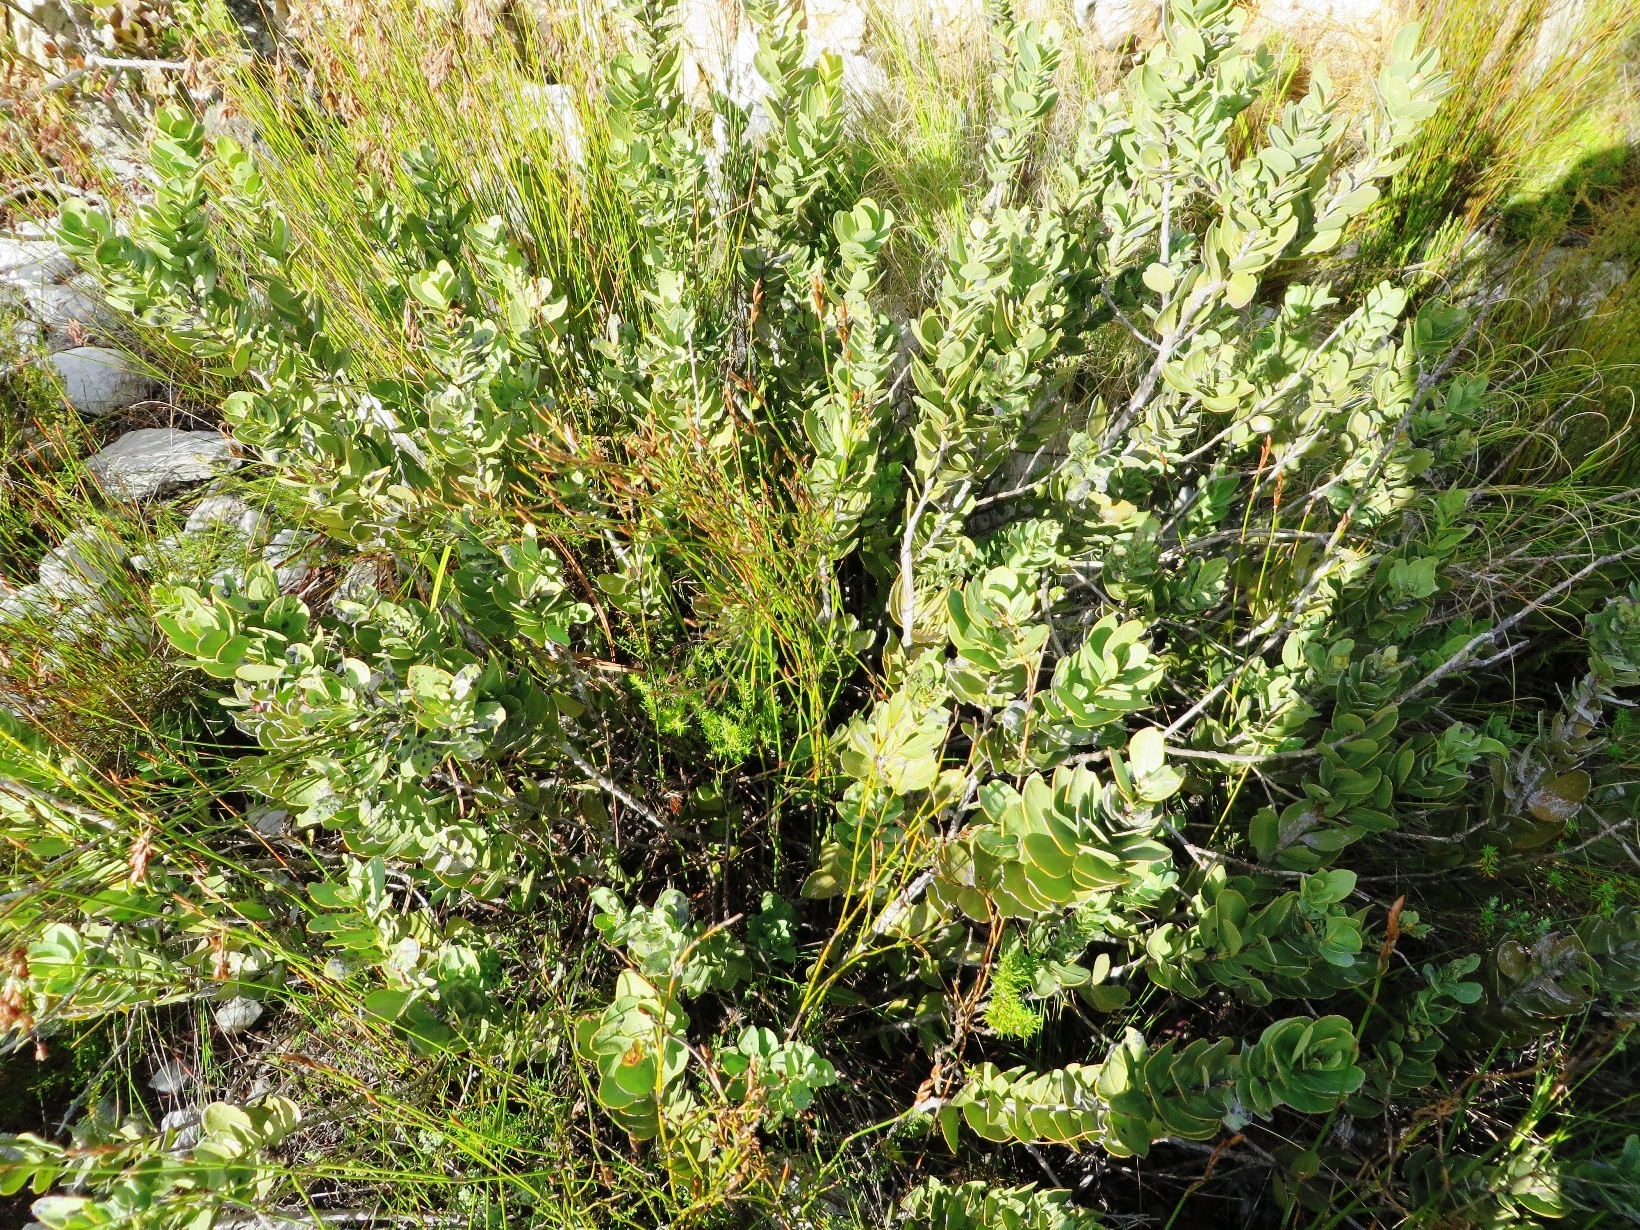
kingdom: Plantae
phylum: Tracheophyta
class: Magnoliopsida
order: Santalales
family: Santalaceae
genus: Osyris
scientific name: Osyris speciosa
